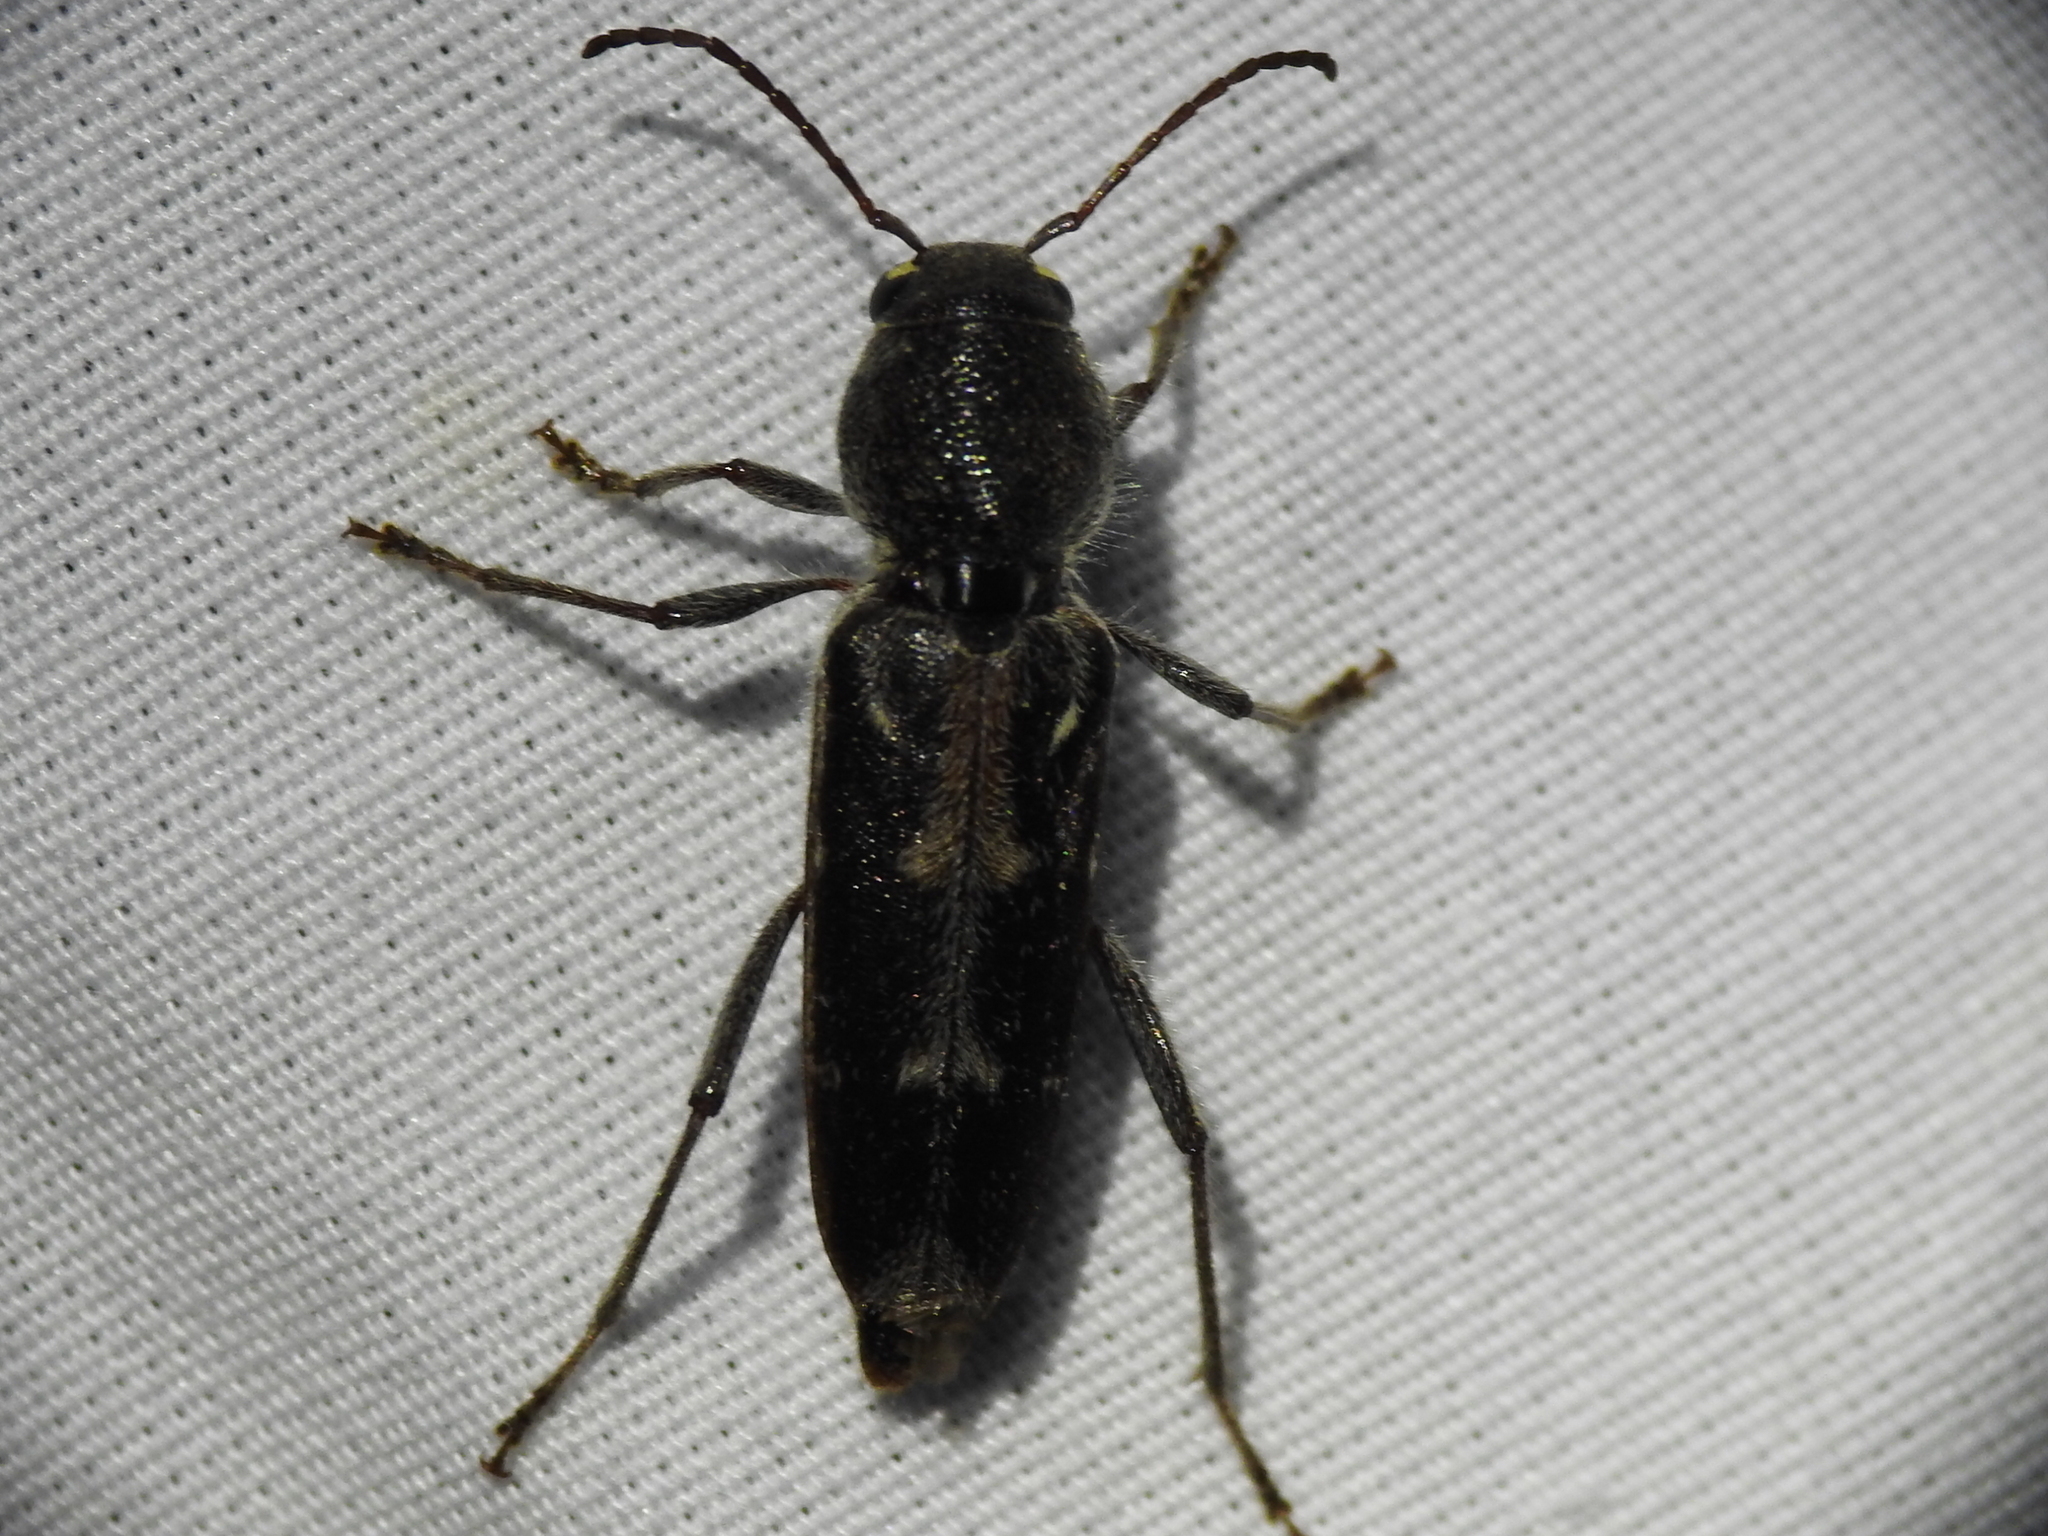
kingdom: Animalia
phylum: Arthropoda
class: Insecta
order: Coleoptera
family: Cerambycidae
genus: Xylotrechus
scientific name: Xylotrechus sagittatus
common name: Arrowhead borer
